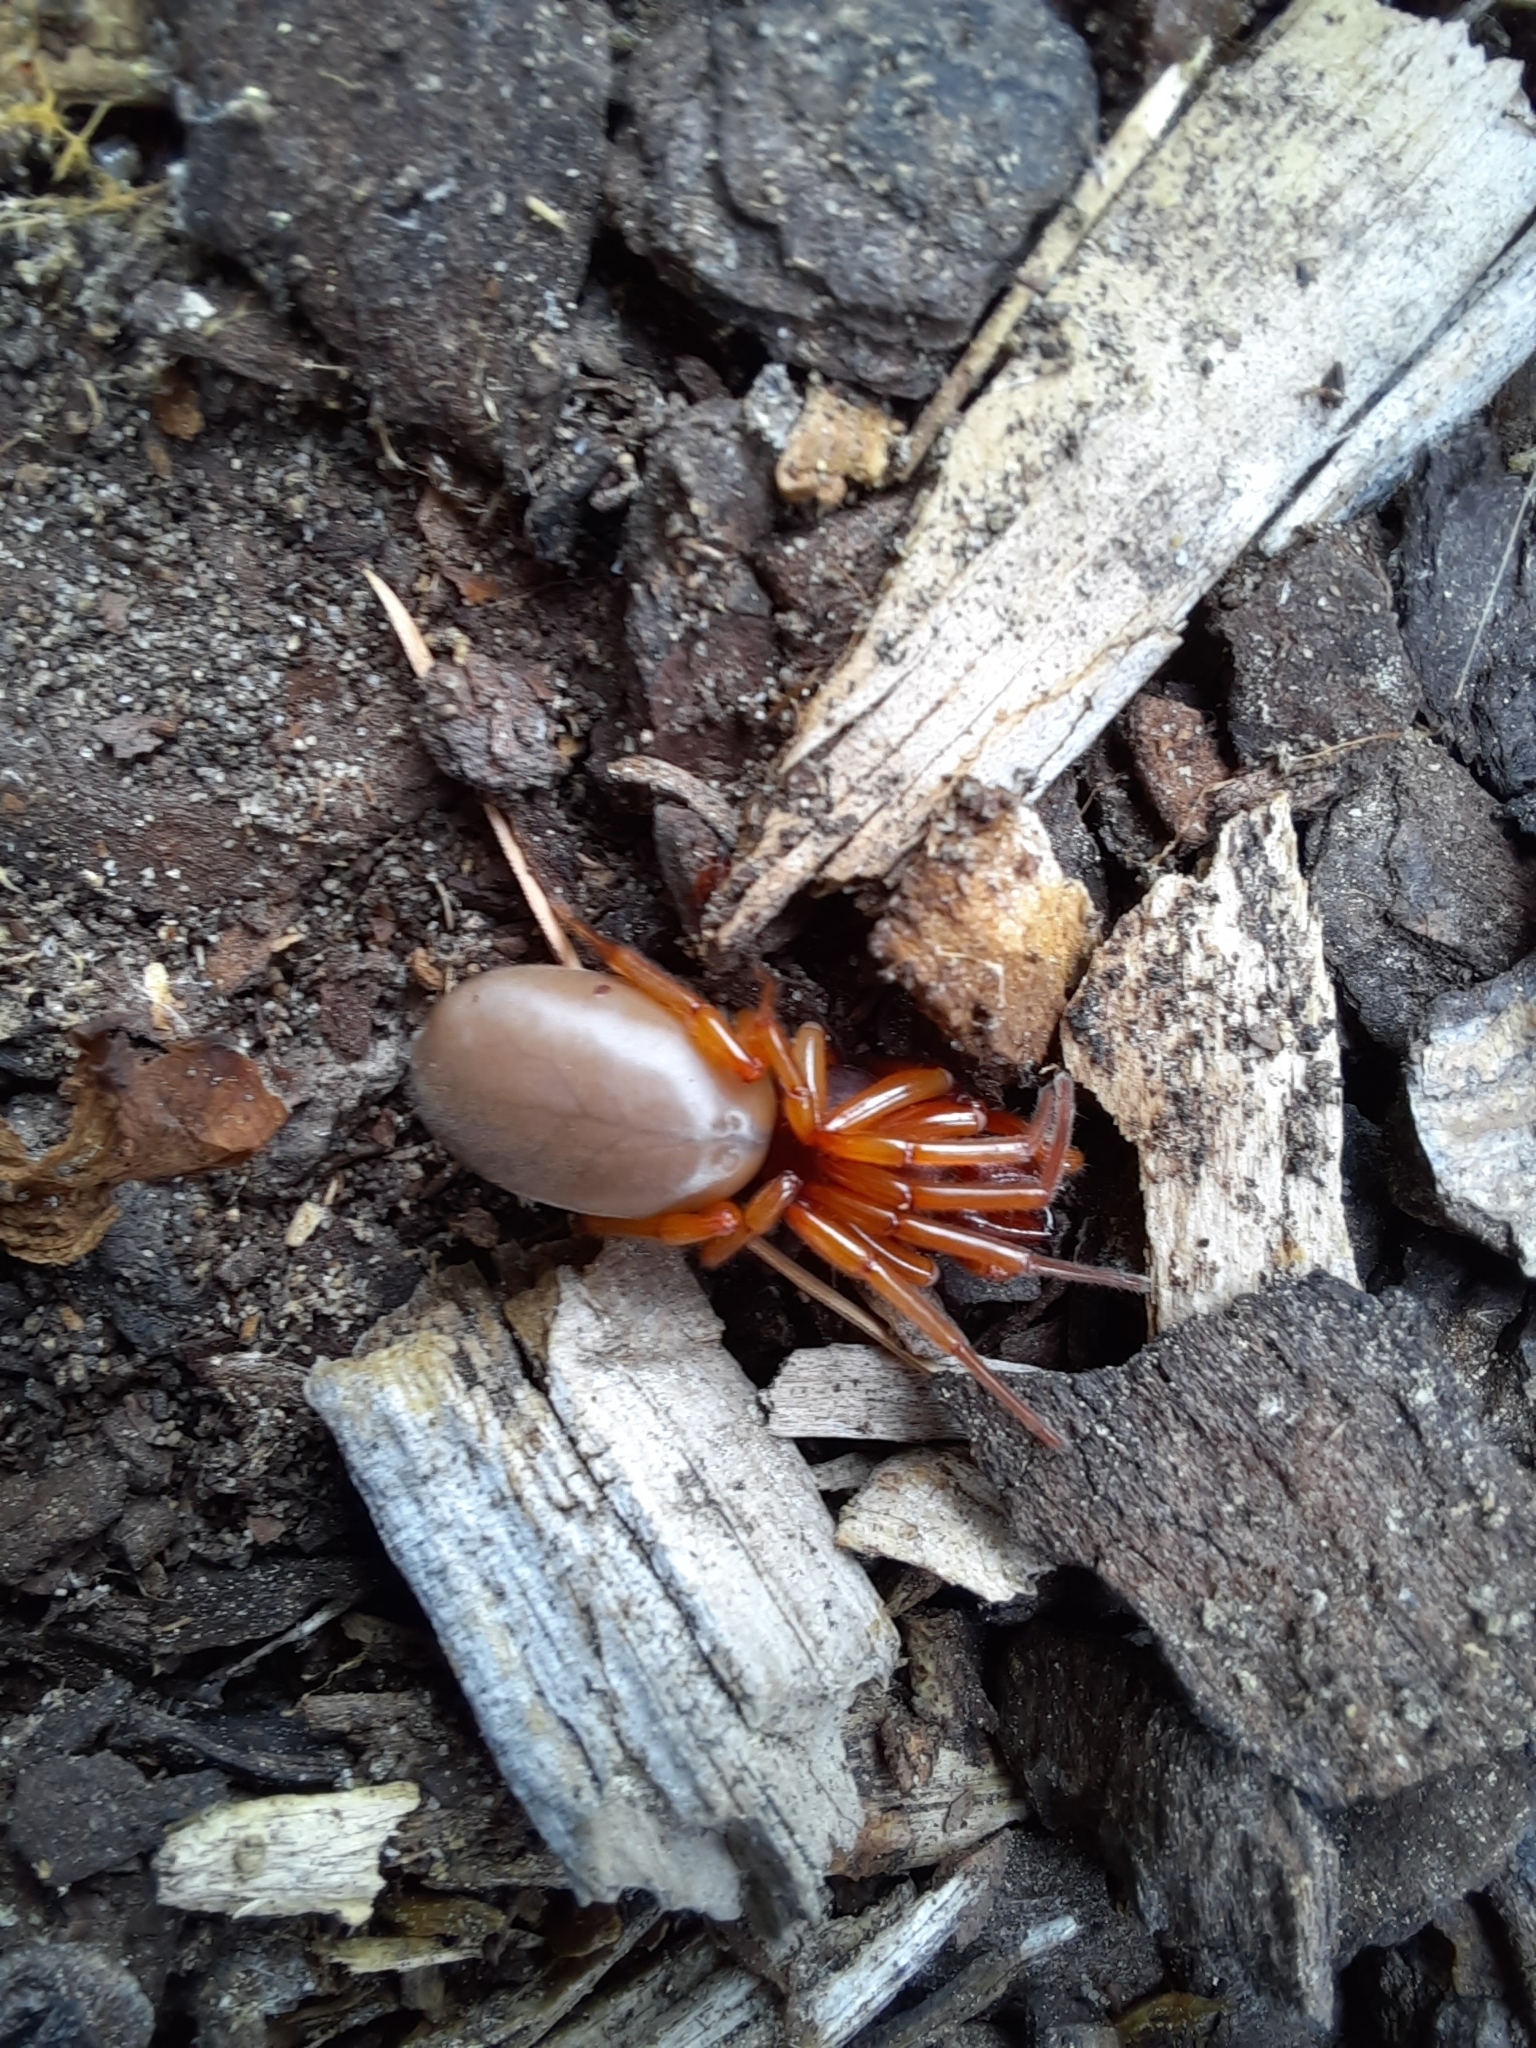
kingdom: Animalia
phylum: Arthropoda
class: Arachnida
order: Araneae
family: Dysderidae
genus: Dysdera
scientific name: Dysdera crocata
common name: Woodlouse spider
